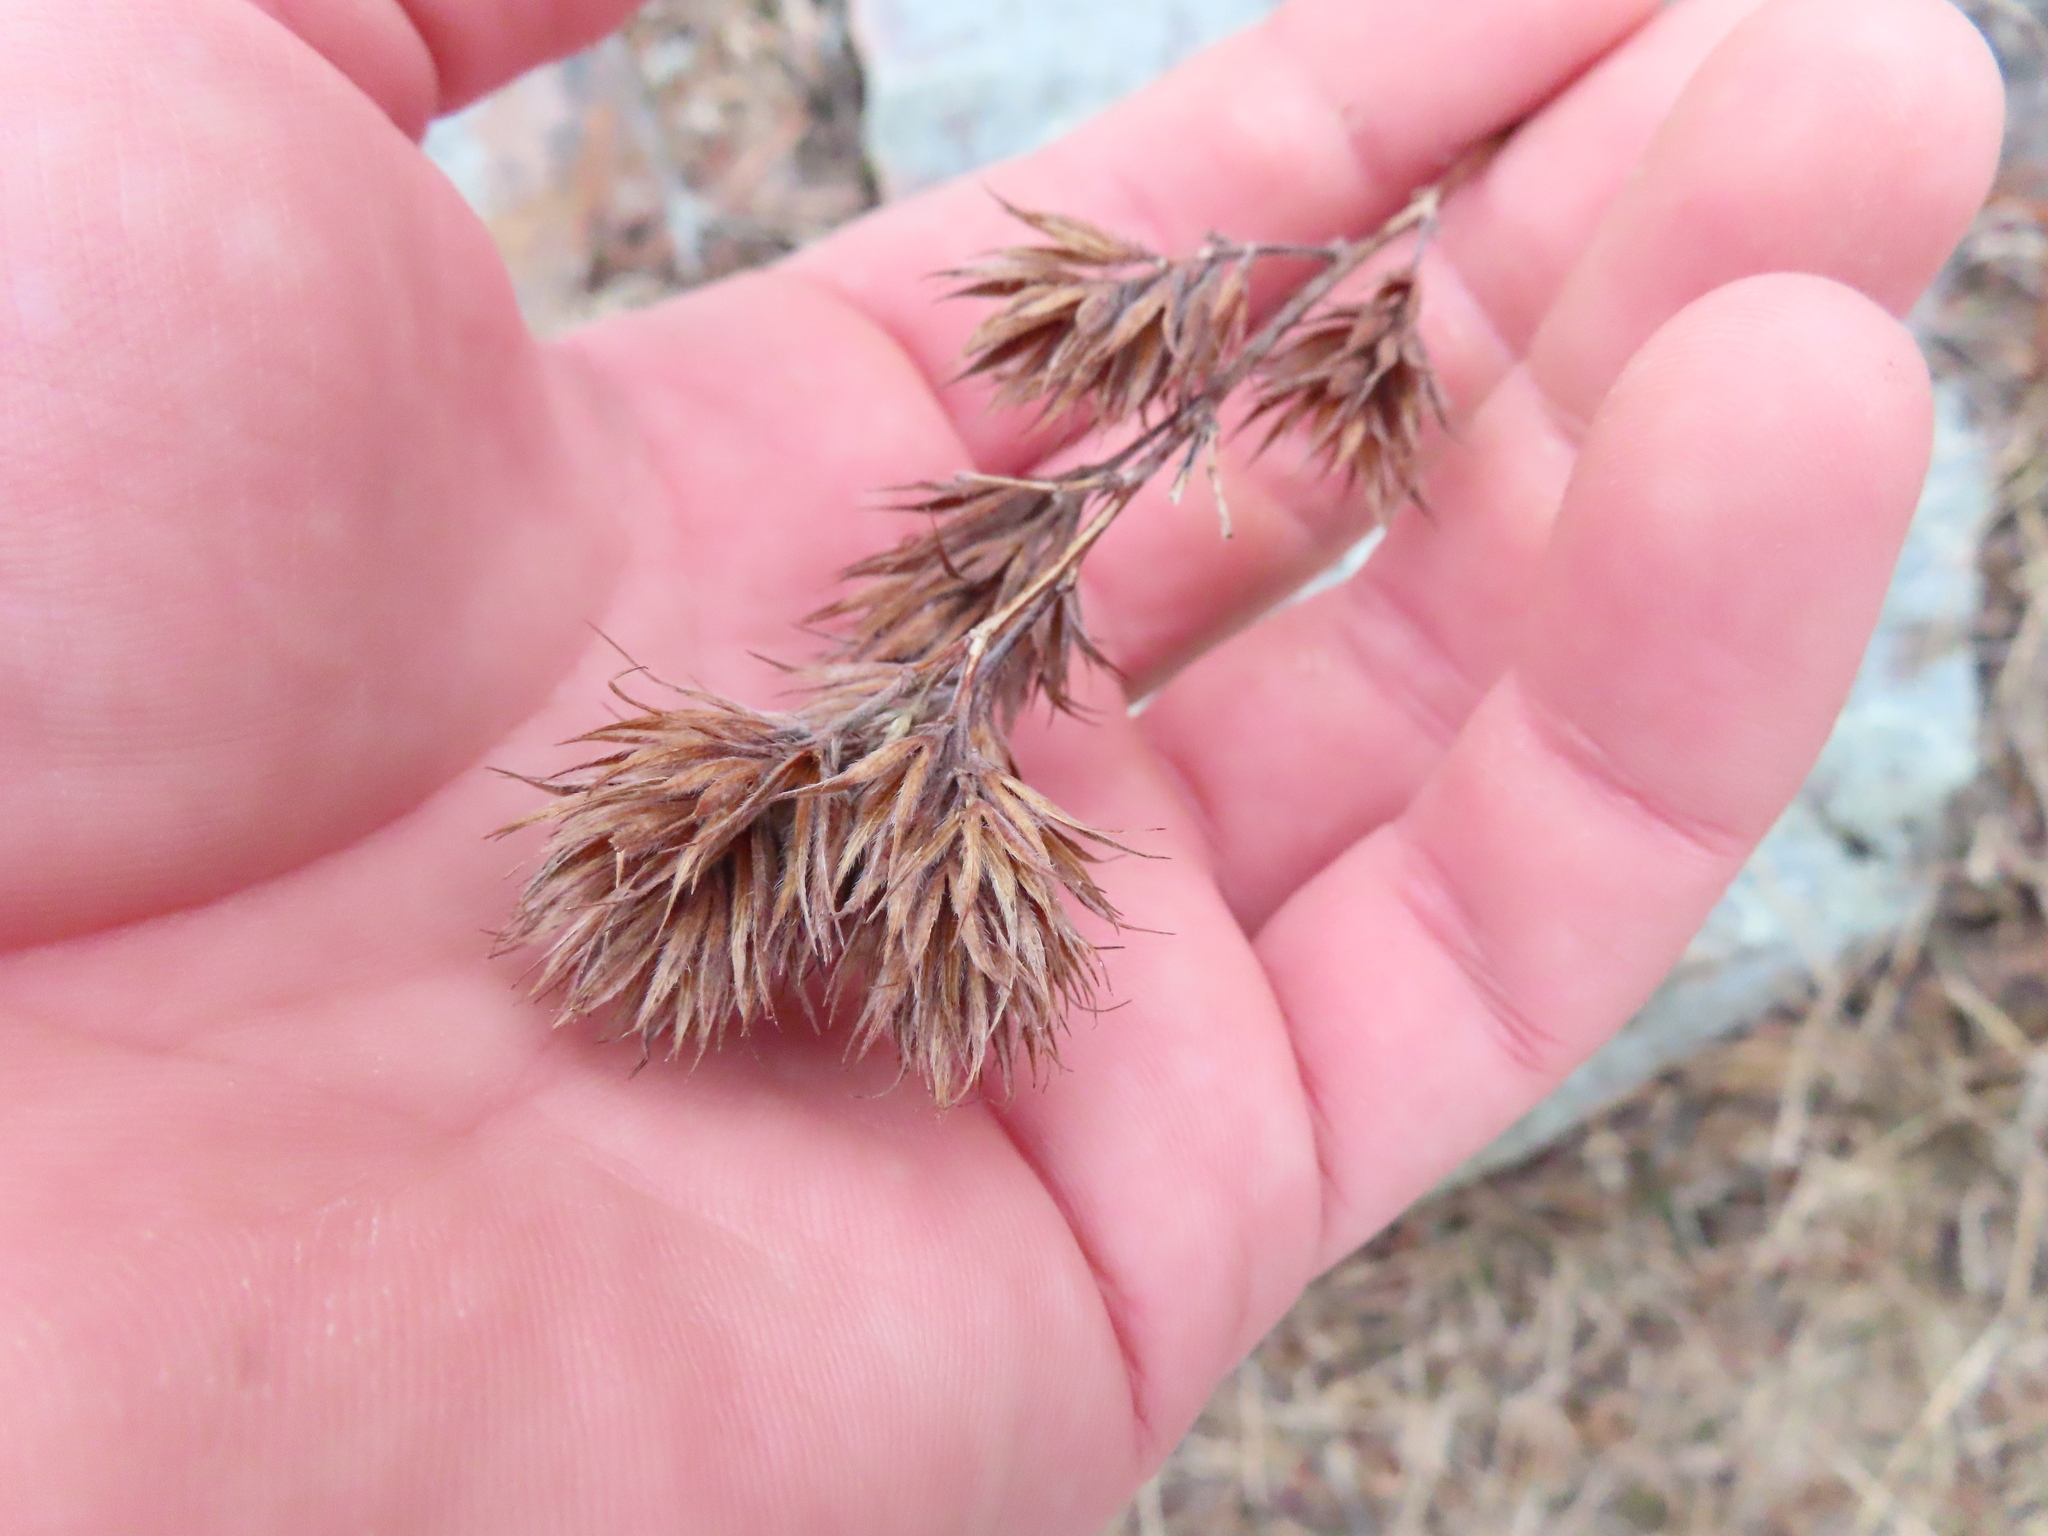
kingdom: Plantae
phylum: Tracheophyta
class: Magnoliopsida
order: Fabales
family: Fabaceae
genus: Lespedeza
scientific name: Lespedeza capitata
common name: Dusty clover
